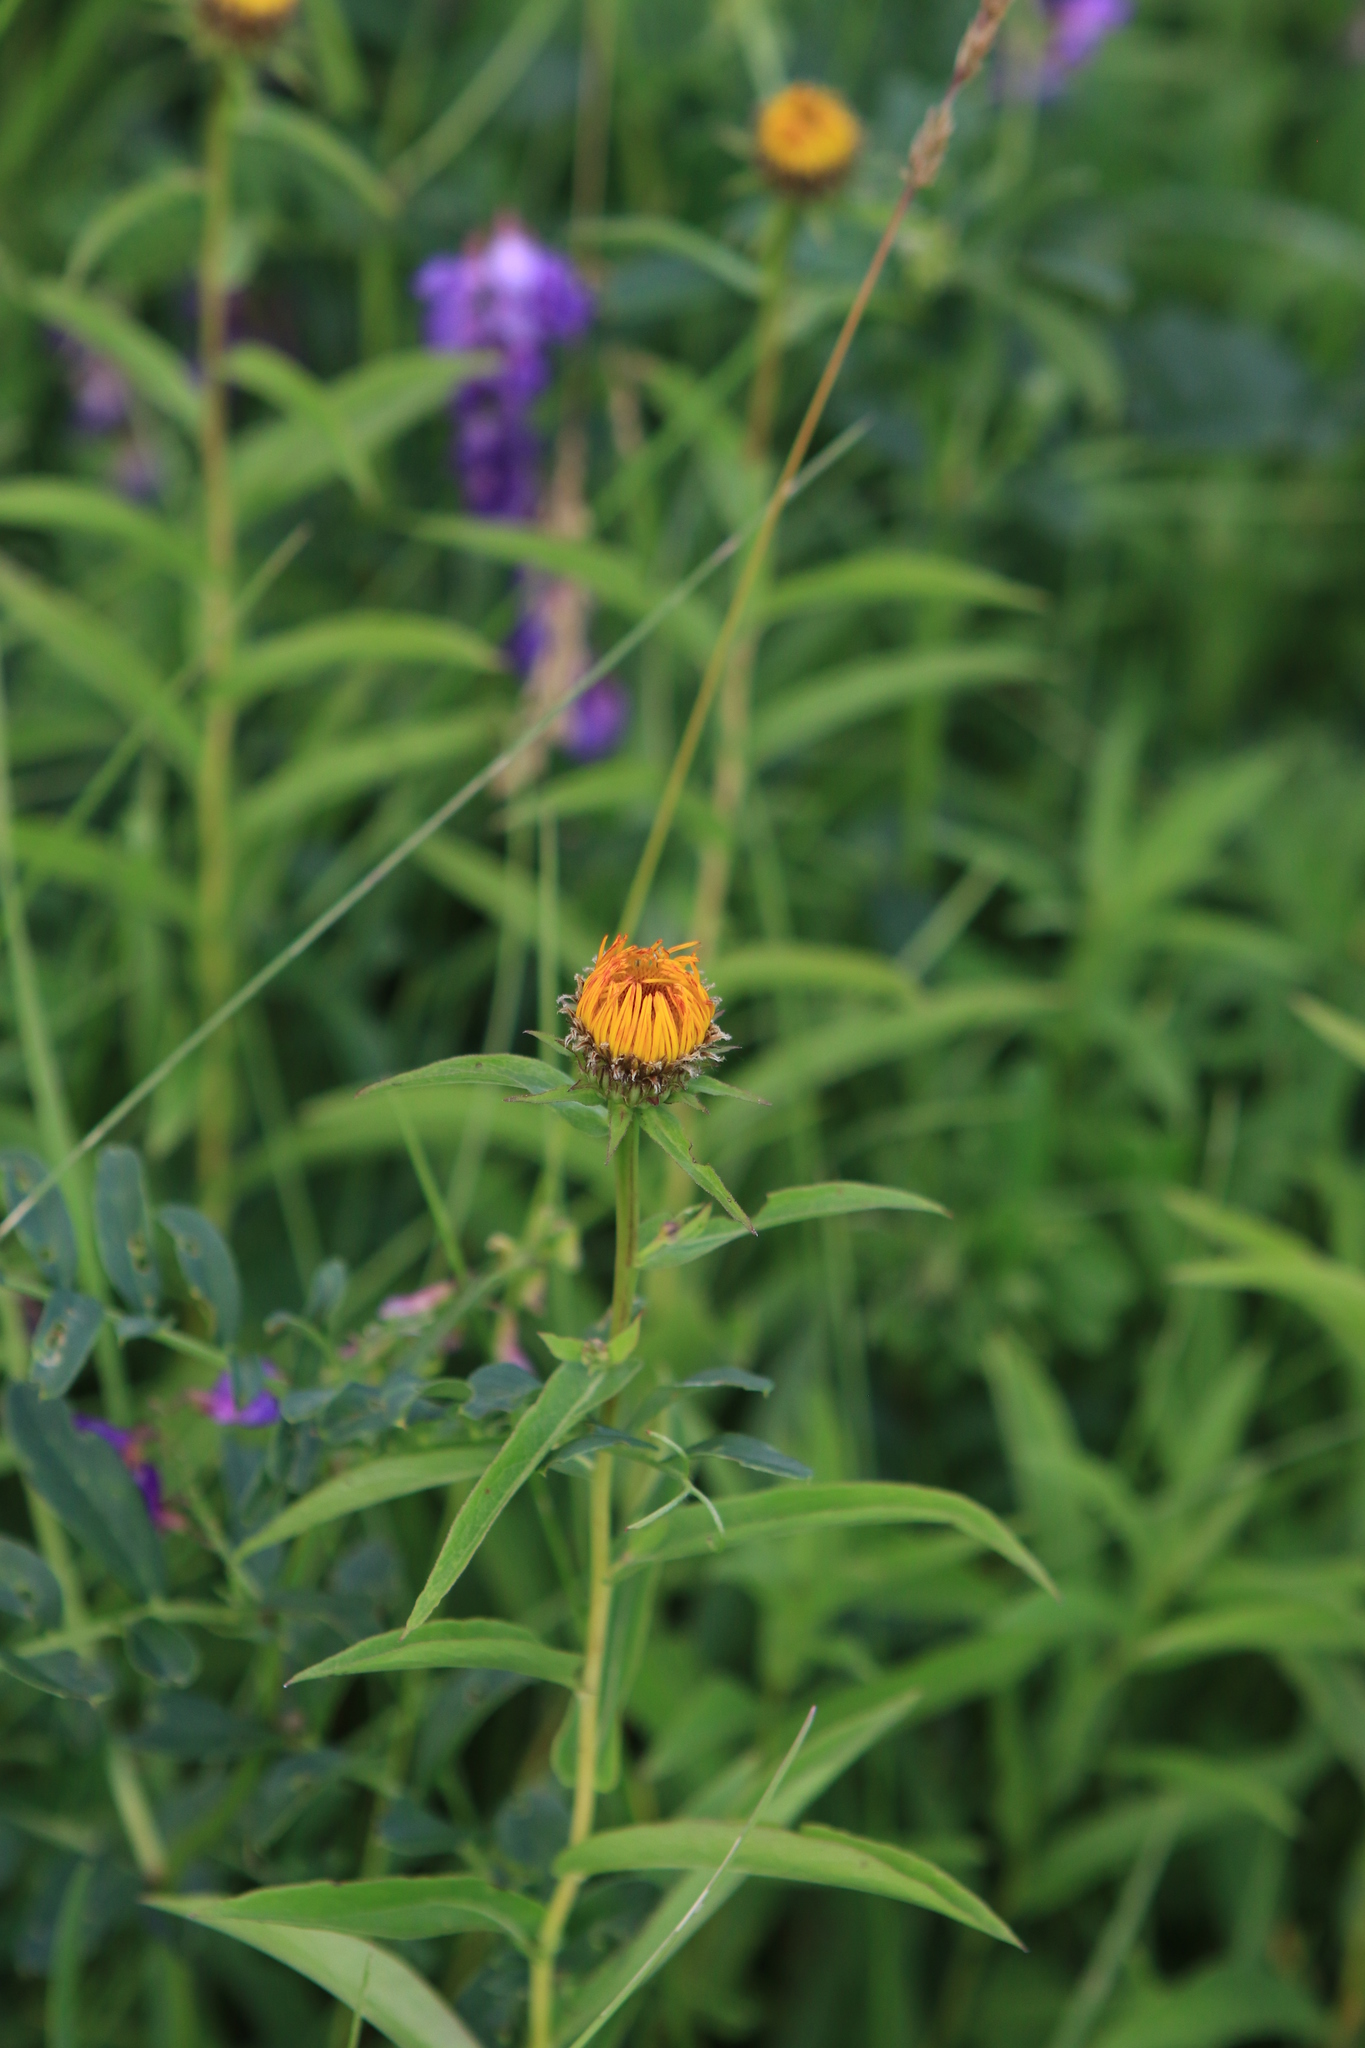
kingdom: Plantae
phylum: Tracheophyta
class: Magnoliopsida
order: Asterales
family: Asteraceae
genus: Pentanema
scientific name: Pentanema salicinum
